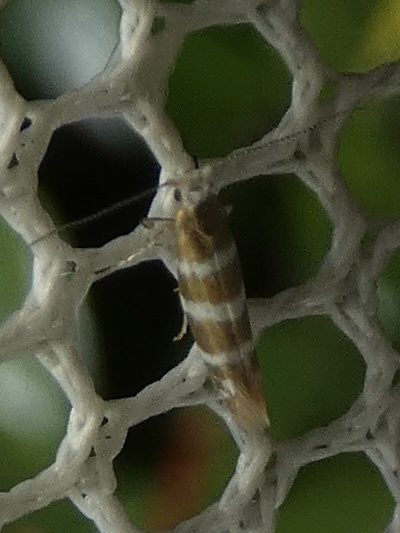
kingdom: Animalia
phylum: Arthropoda
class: Insecta
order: Lepidoptera
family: Argyresthiidae
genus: Argyresthia
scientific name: Argyresthia trifasciata
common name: Triple-barred argent
